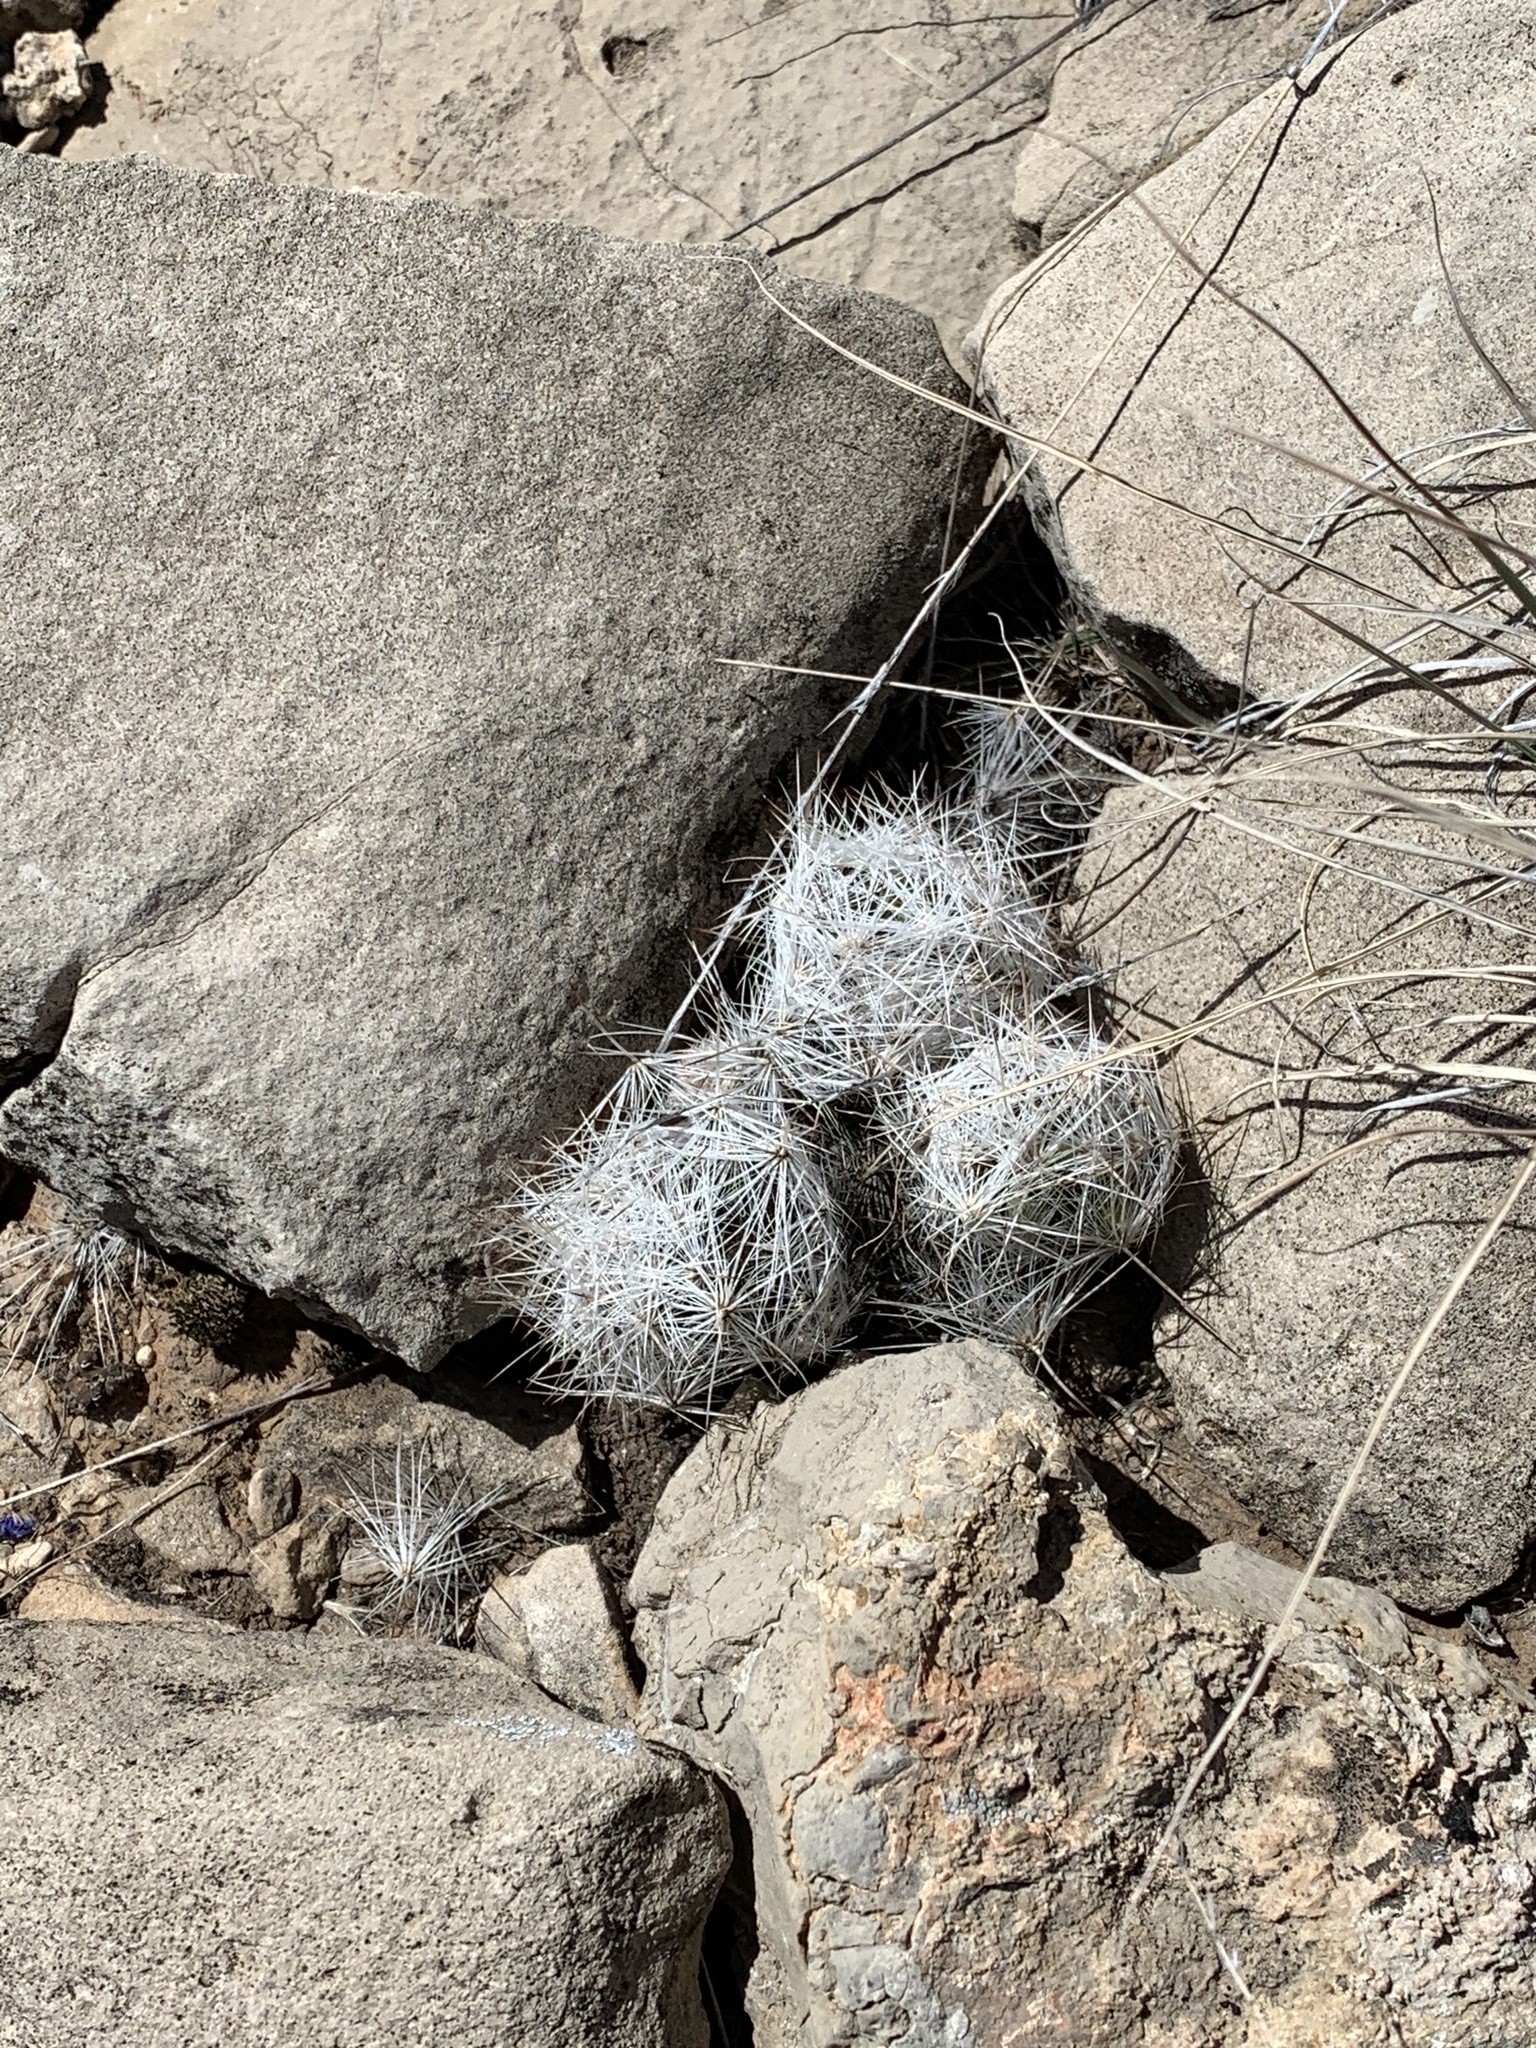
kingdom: Plantae
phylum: Tracheophyta
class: Magnoliopsida
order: Caryophyllales
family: Cactaceae
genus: Pelecyphora
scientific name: Pelecyphora vivipara
